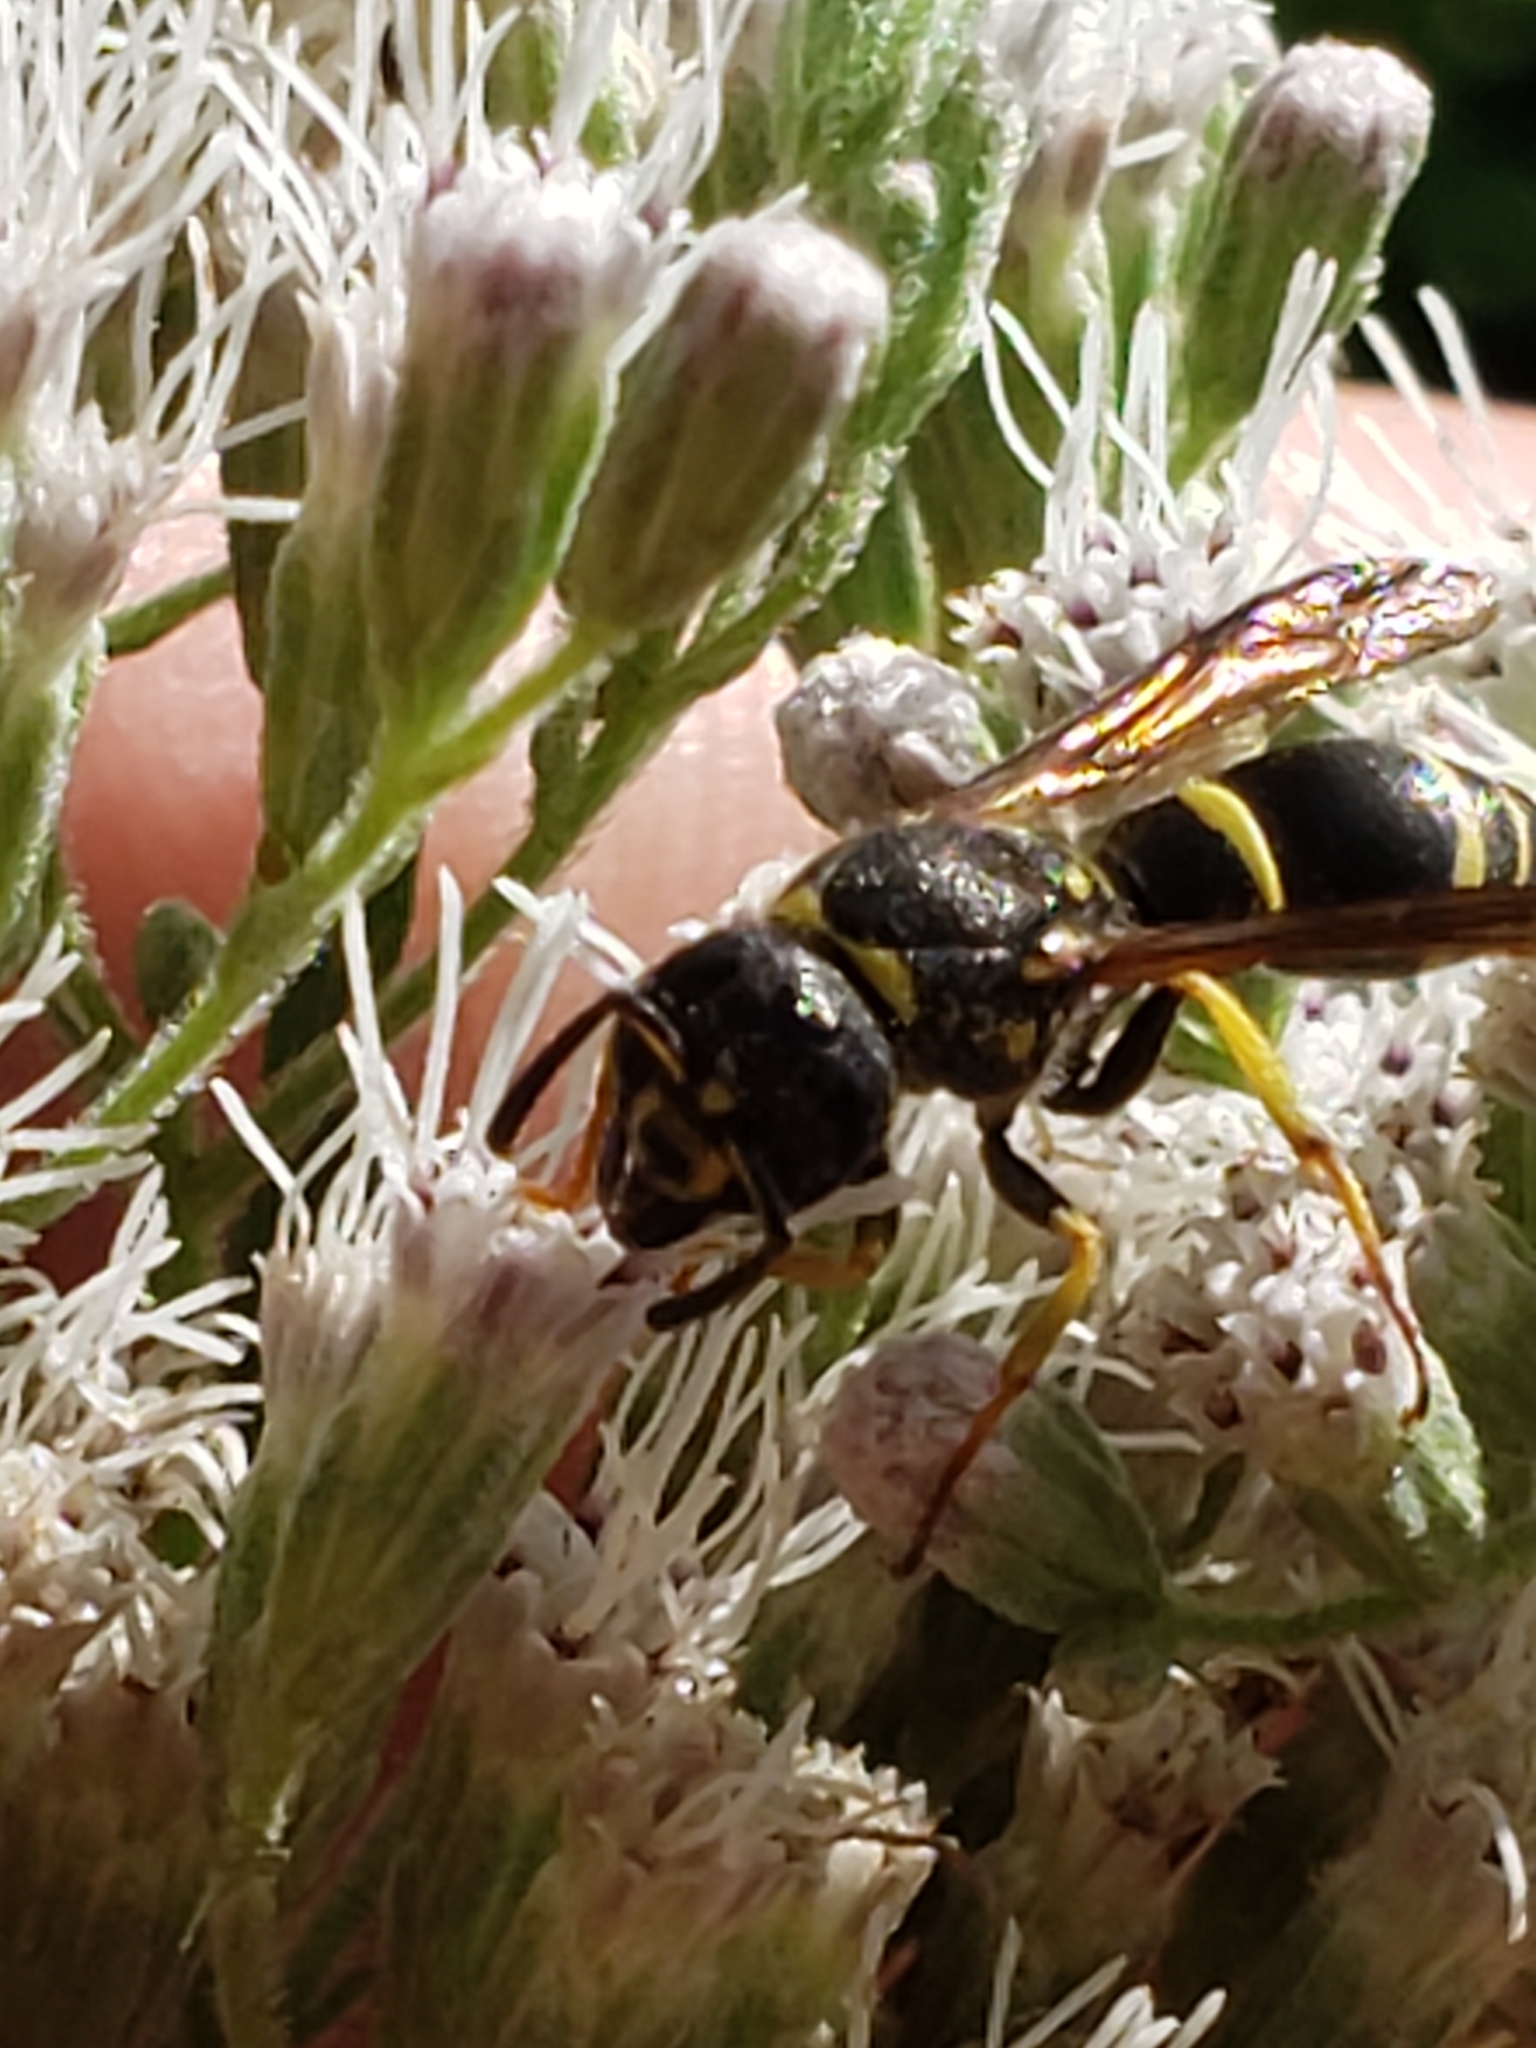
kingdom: Animalia
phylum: Arthropoda
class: Insecta
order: Hymenoptera
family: Vespidae
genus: Ancistrocerus
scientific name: Ancistrocerus adiabatus
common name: Bramble mason wasp
